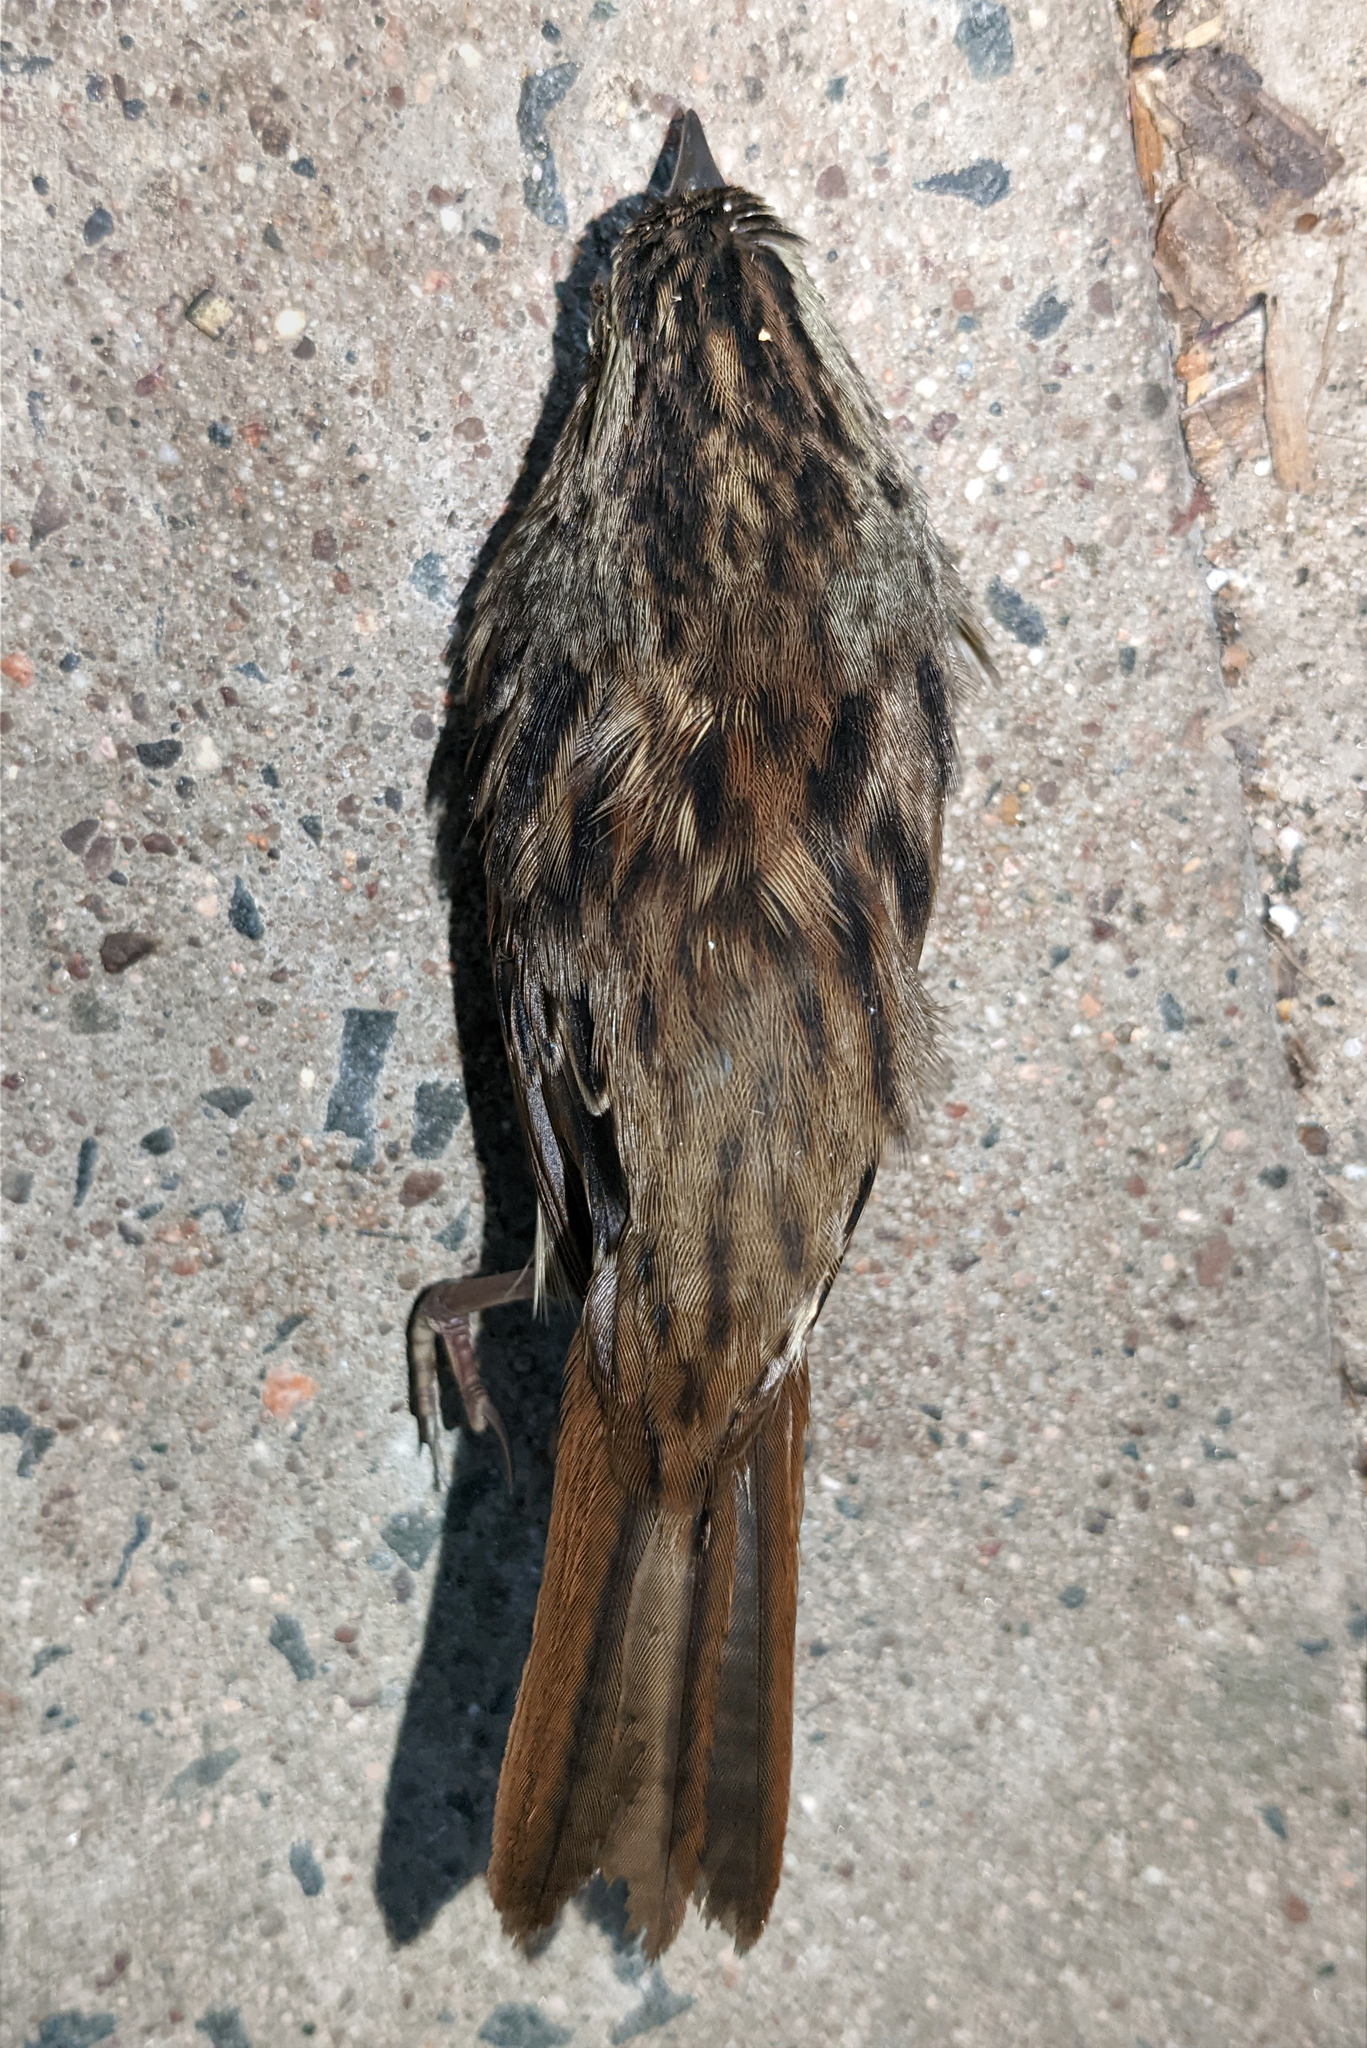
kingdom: Animalia
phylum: Chordata
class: Aves
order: Passeriformes
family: Passerellidae
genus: Melospiza
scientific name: Melospiza georgiana
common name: Swamp sparrow
